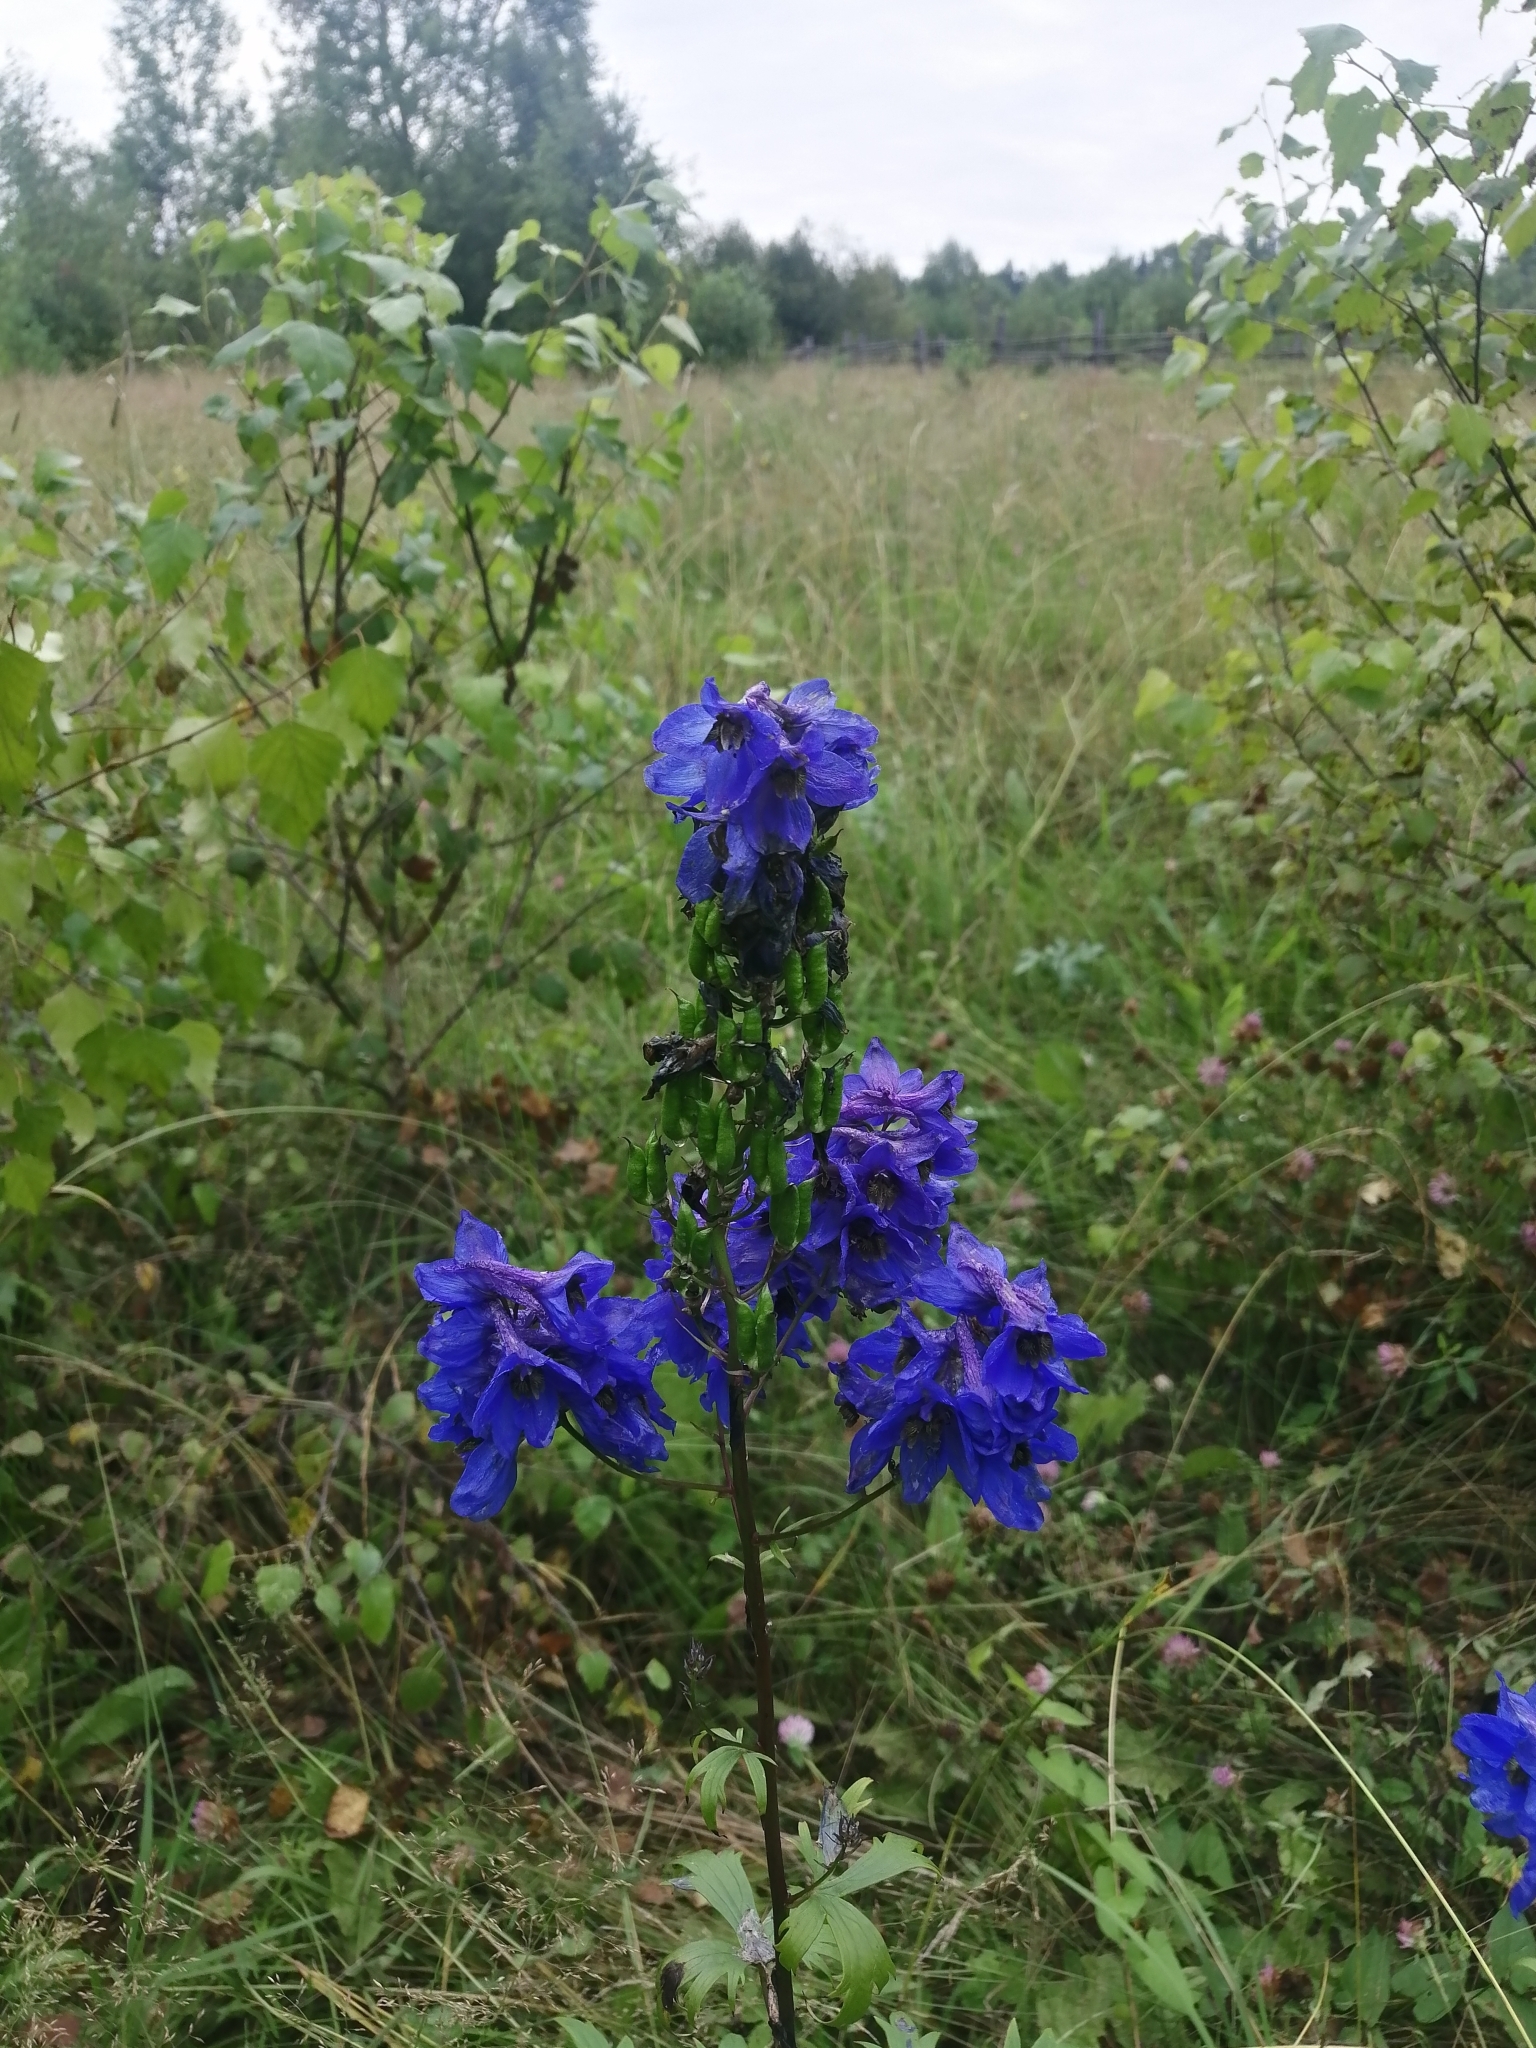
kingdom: Plantae
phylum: Tracheophyta
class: Magnoliopsida
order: Ranunculales
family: Ranunculaceae
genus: Delphinium
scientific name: Delphinium elatum
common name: Candle larkspur
